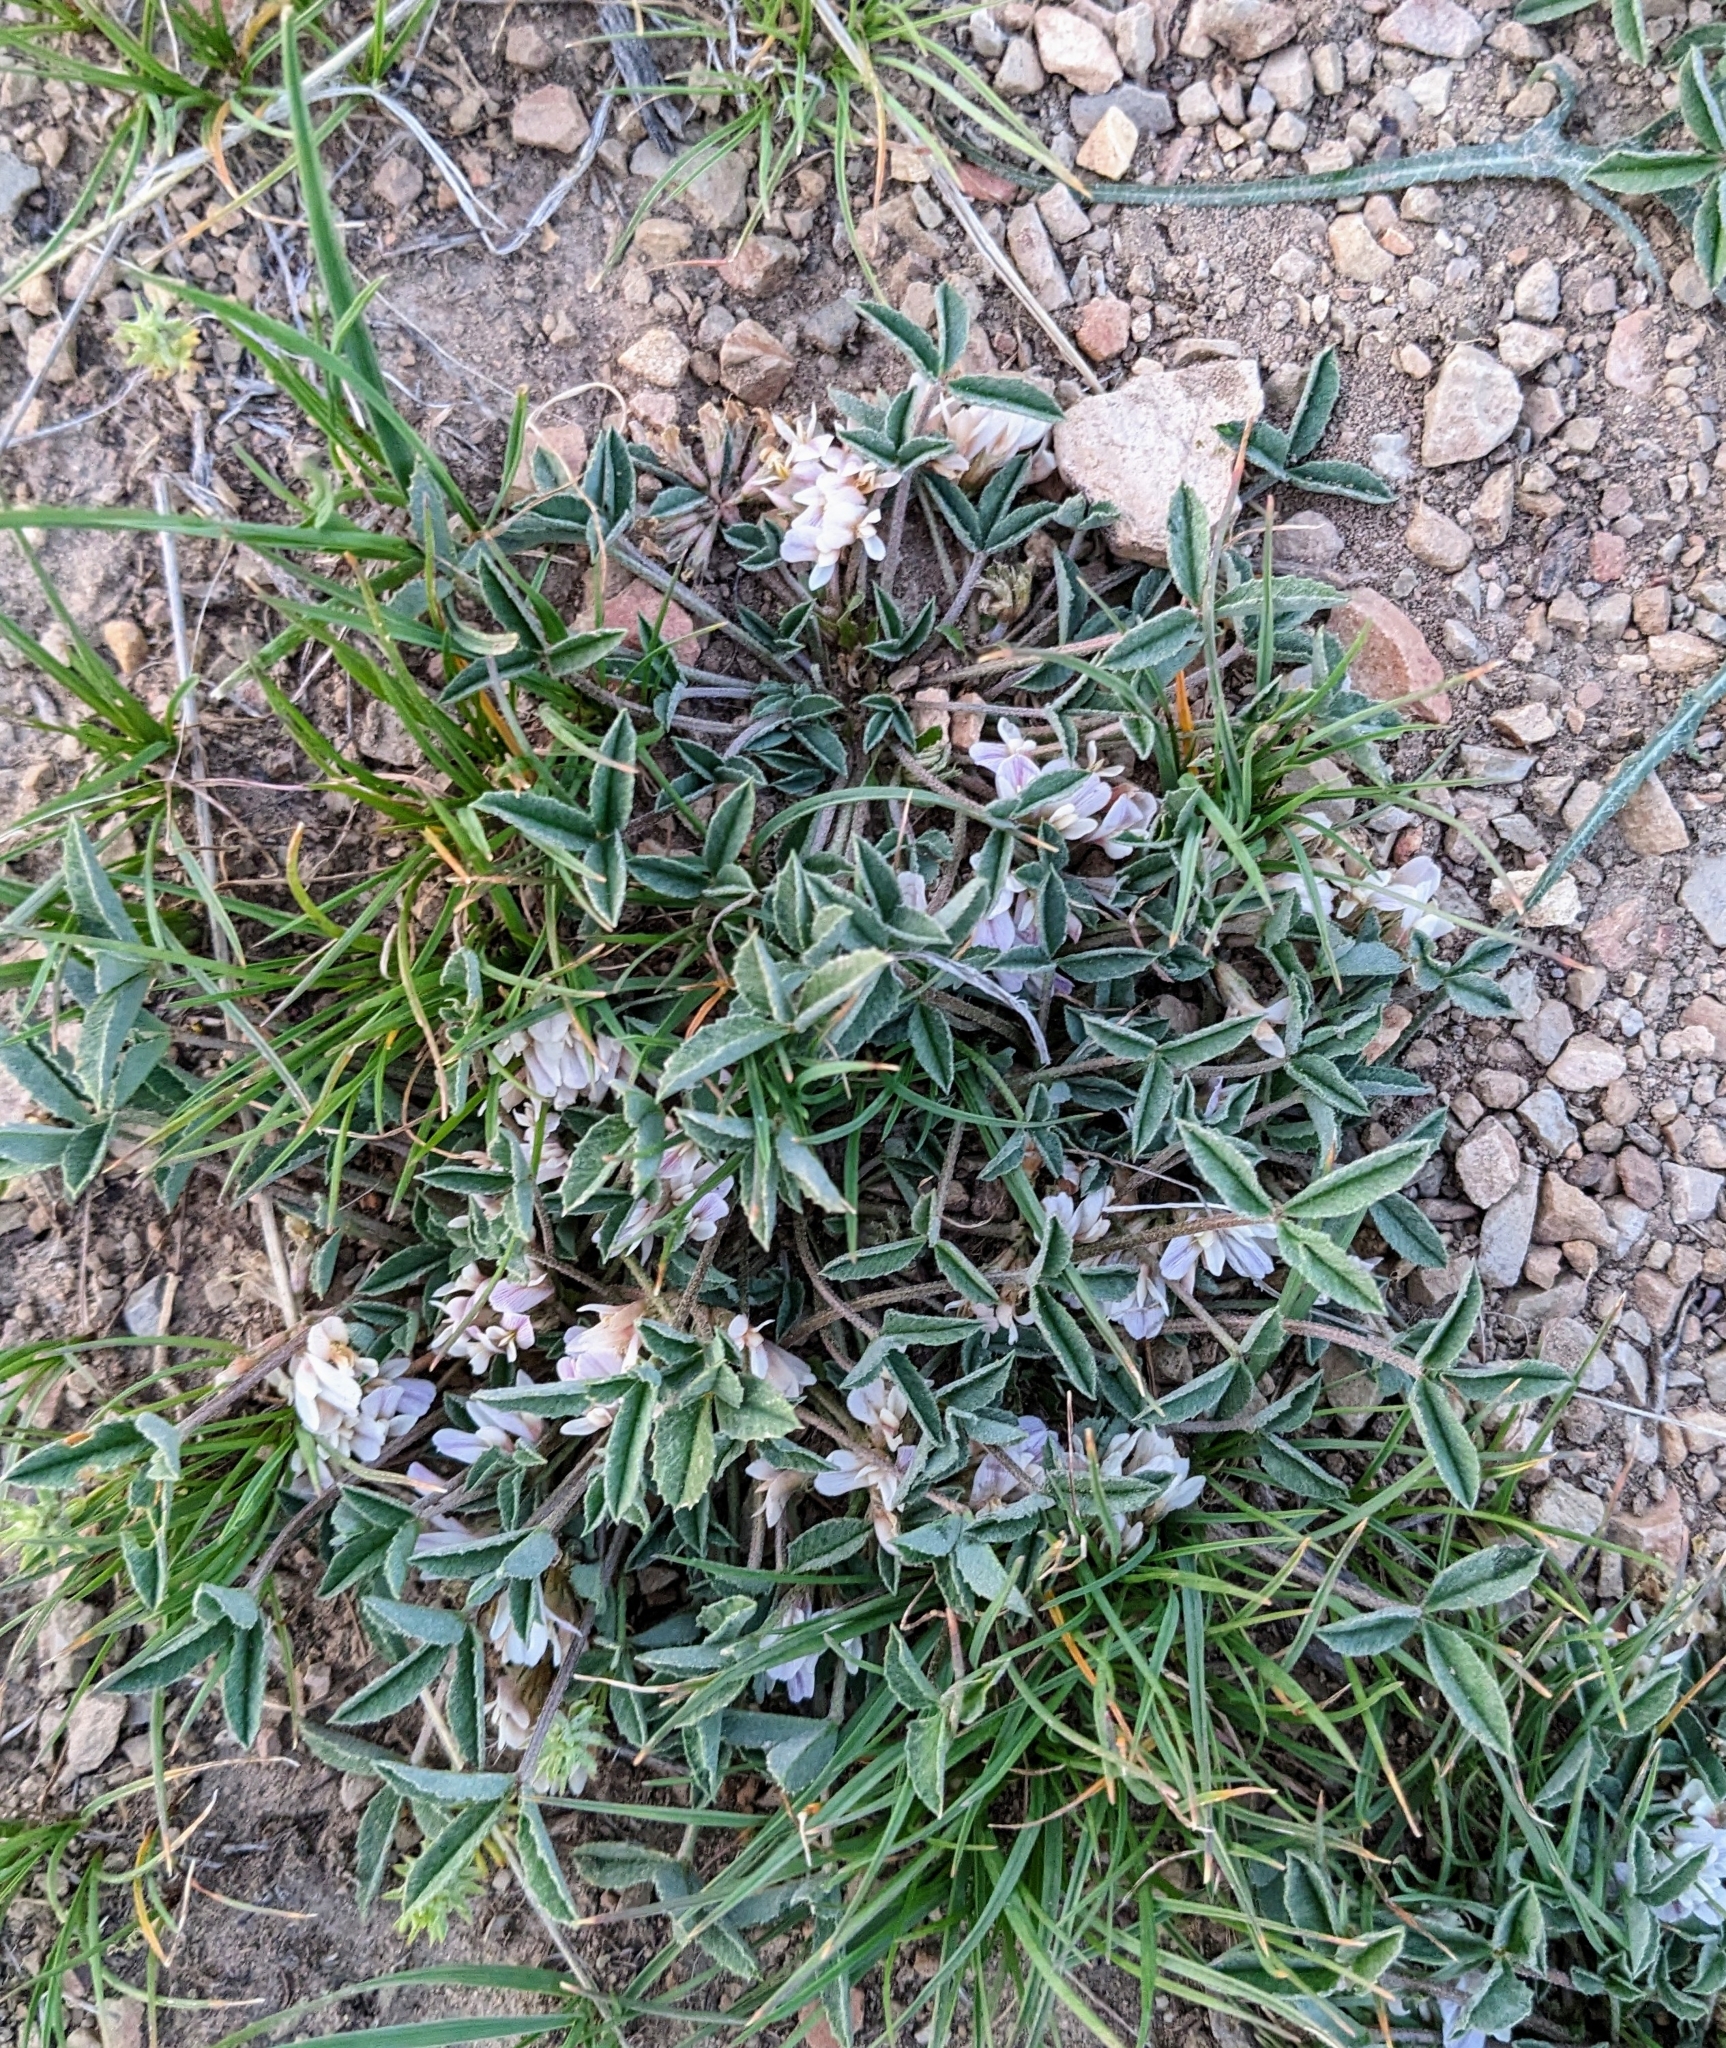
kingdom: Plantae
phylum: Tracheophyta
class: Magnoliopsida
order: Fabales
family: Fabaceae
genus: Trifolium
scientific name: Trifolium gymnocarpon
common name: Tufted clover
